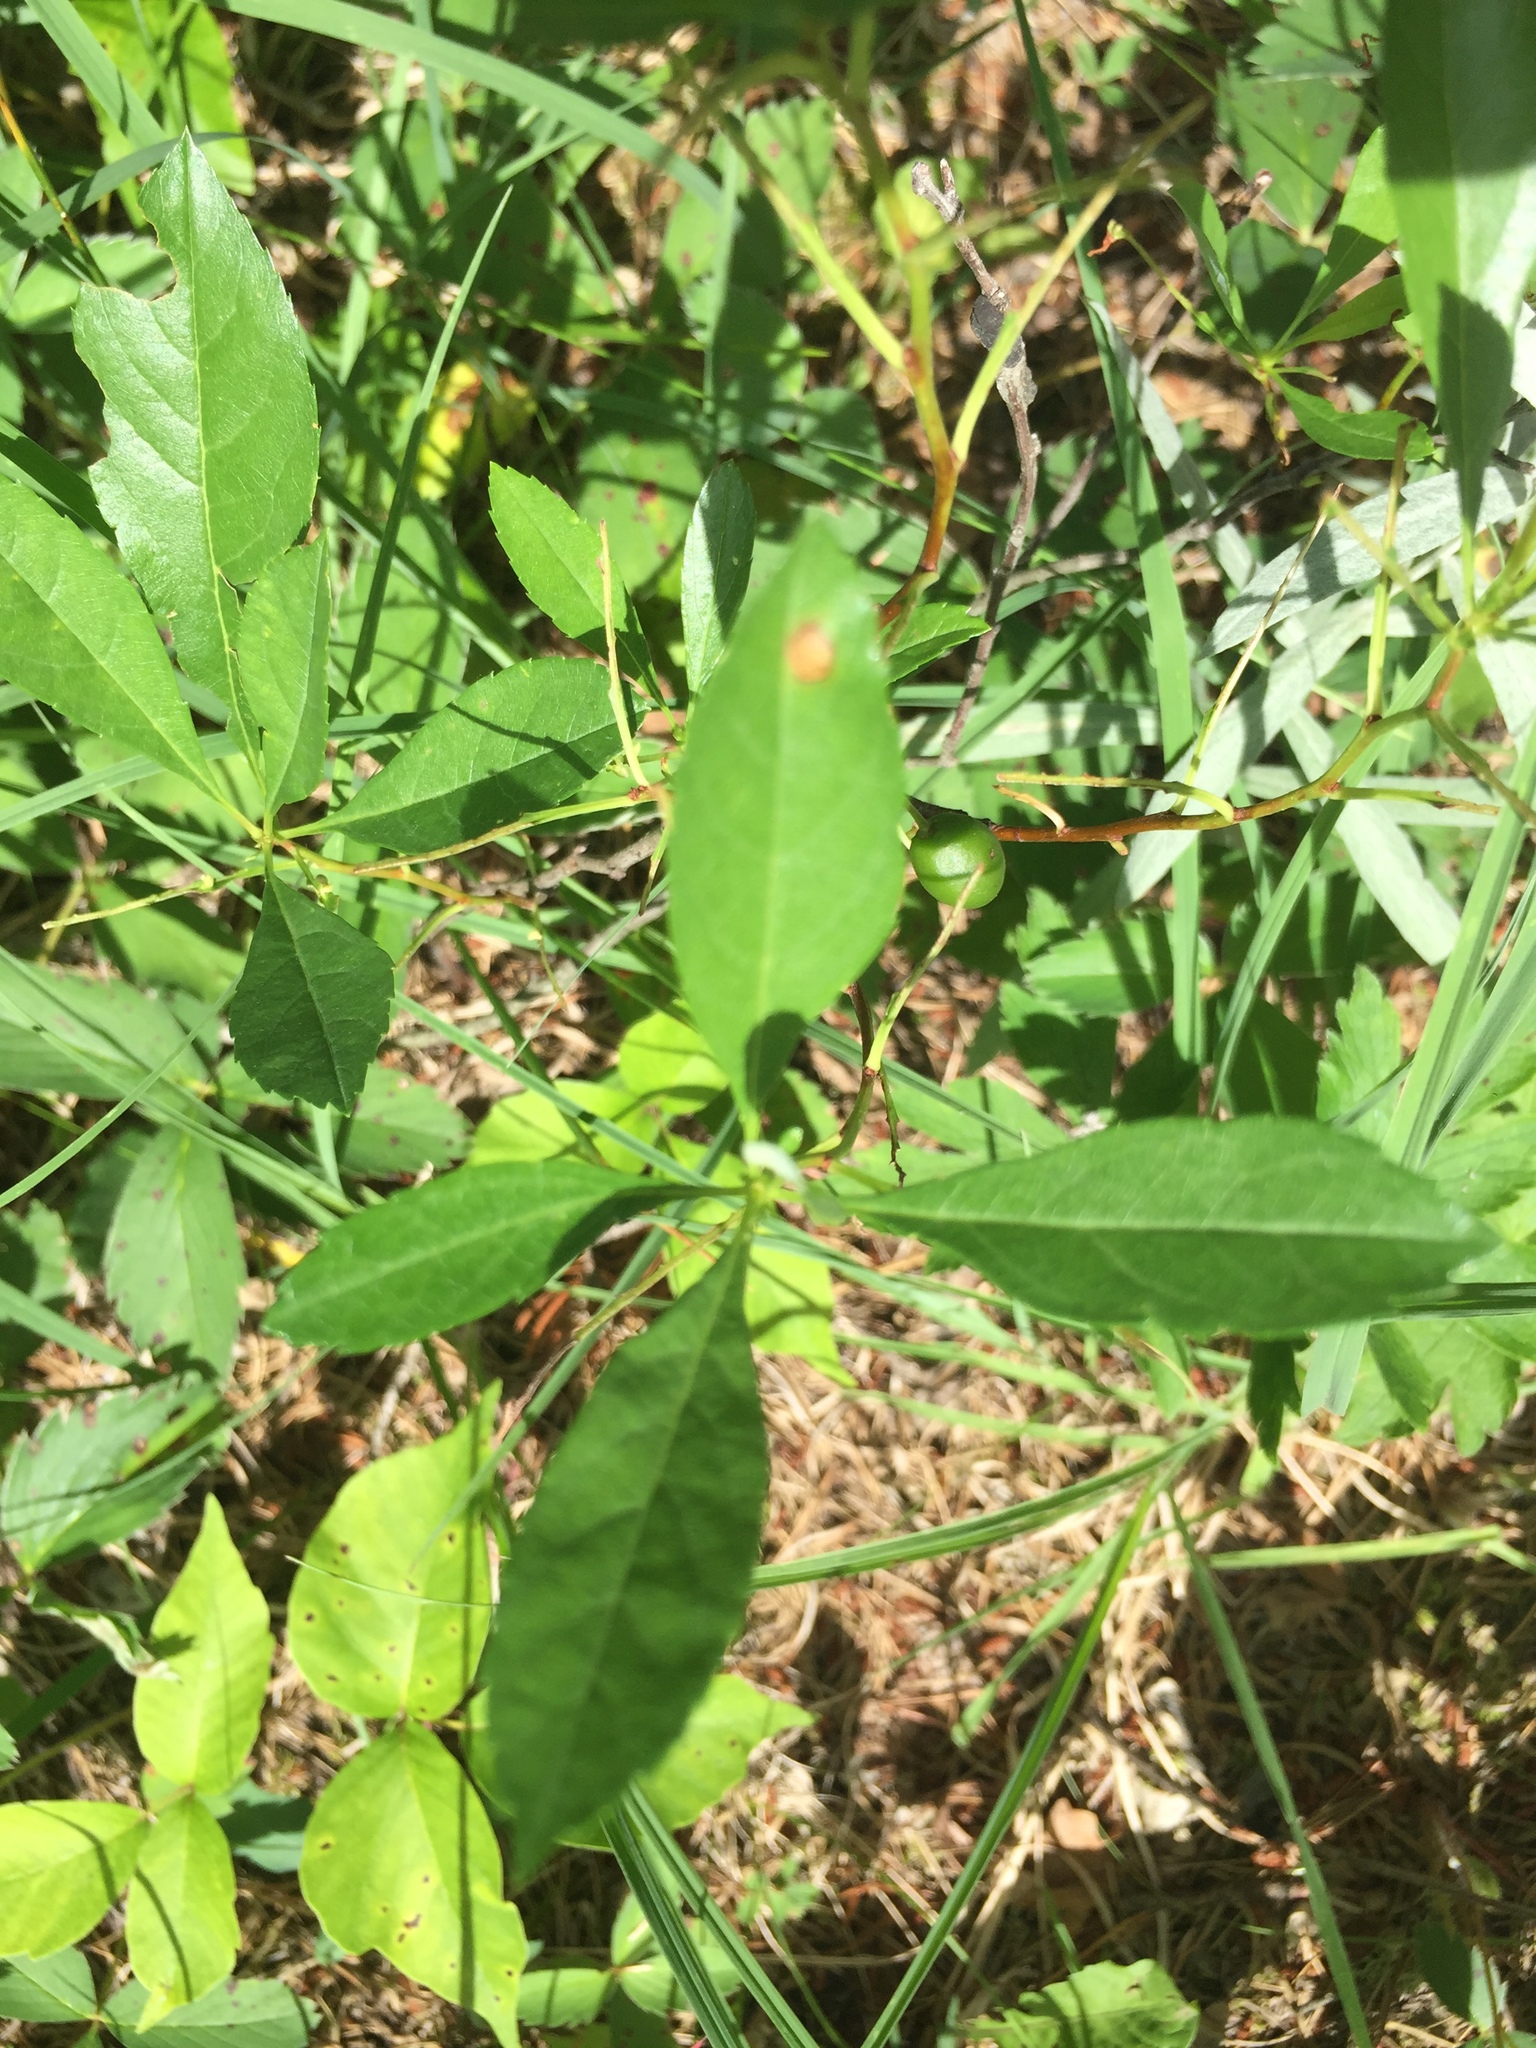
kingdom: Plantae
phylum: Tracheophyta
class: Magnoliopsida
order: Rosales
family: Rosaceae
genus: Prunus
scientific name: Prunus pumila
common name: Dwarf cherry
